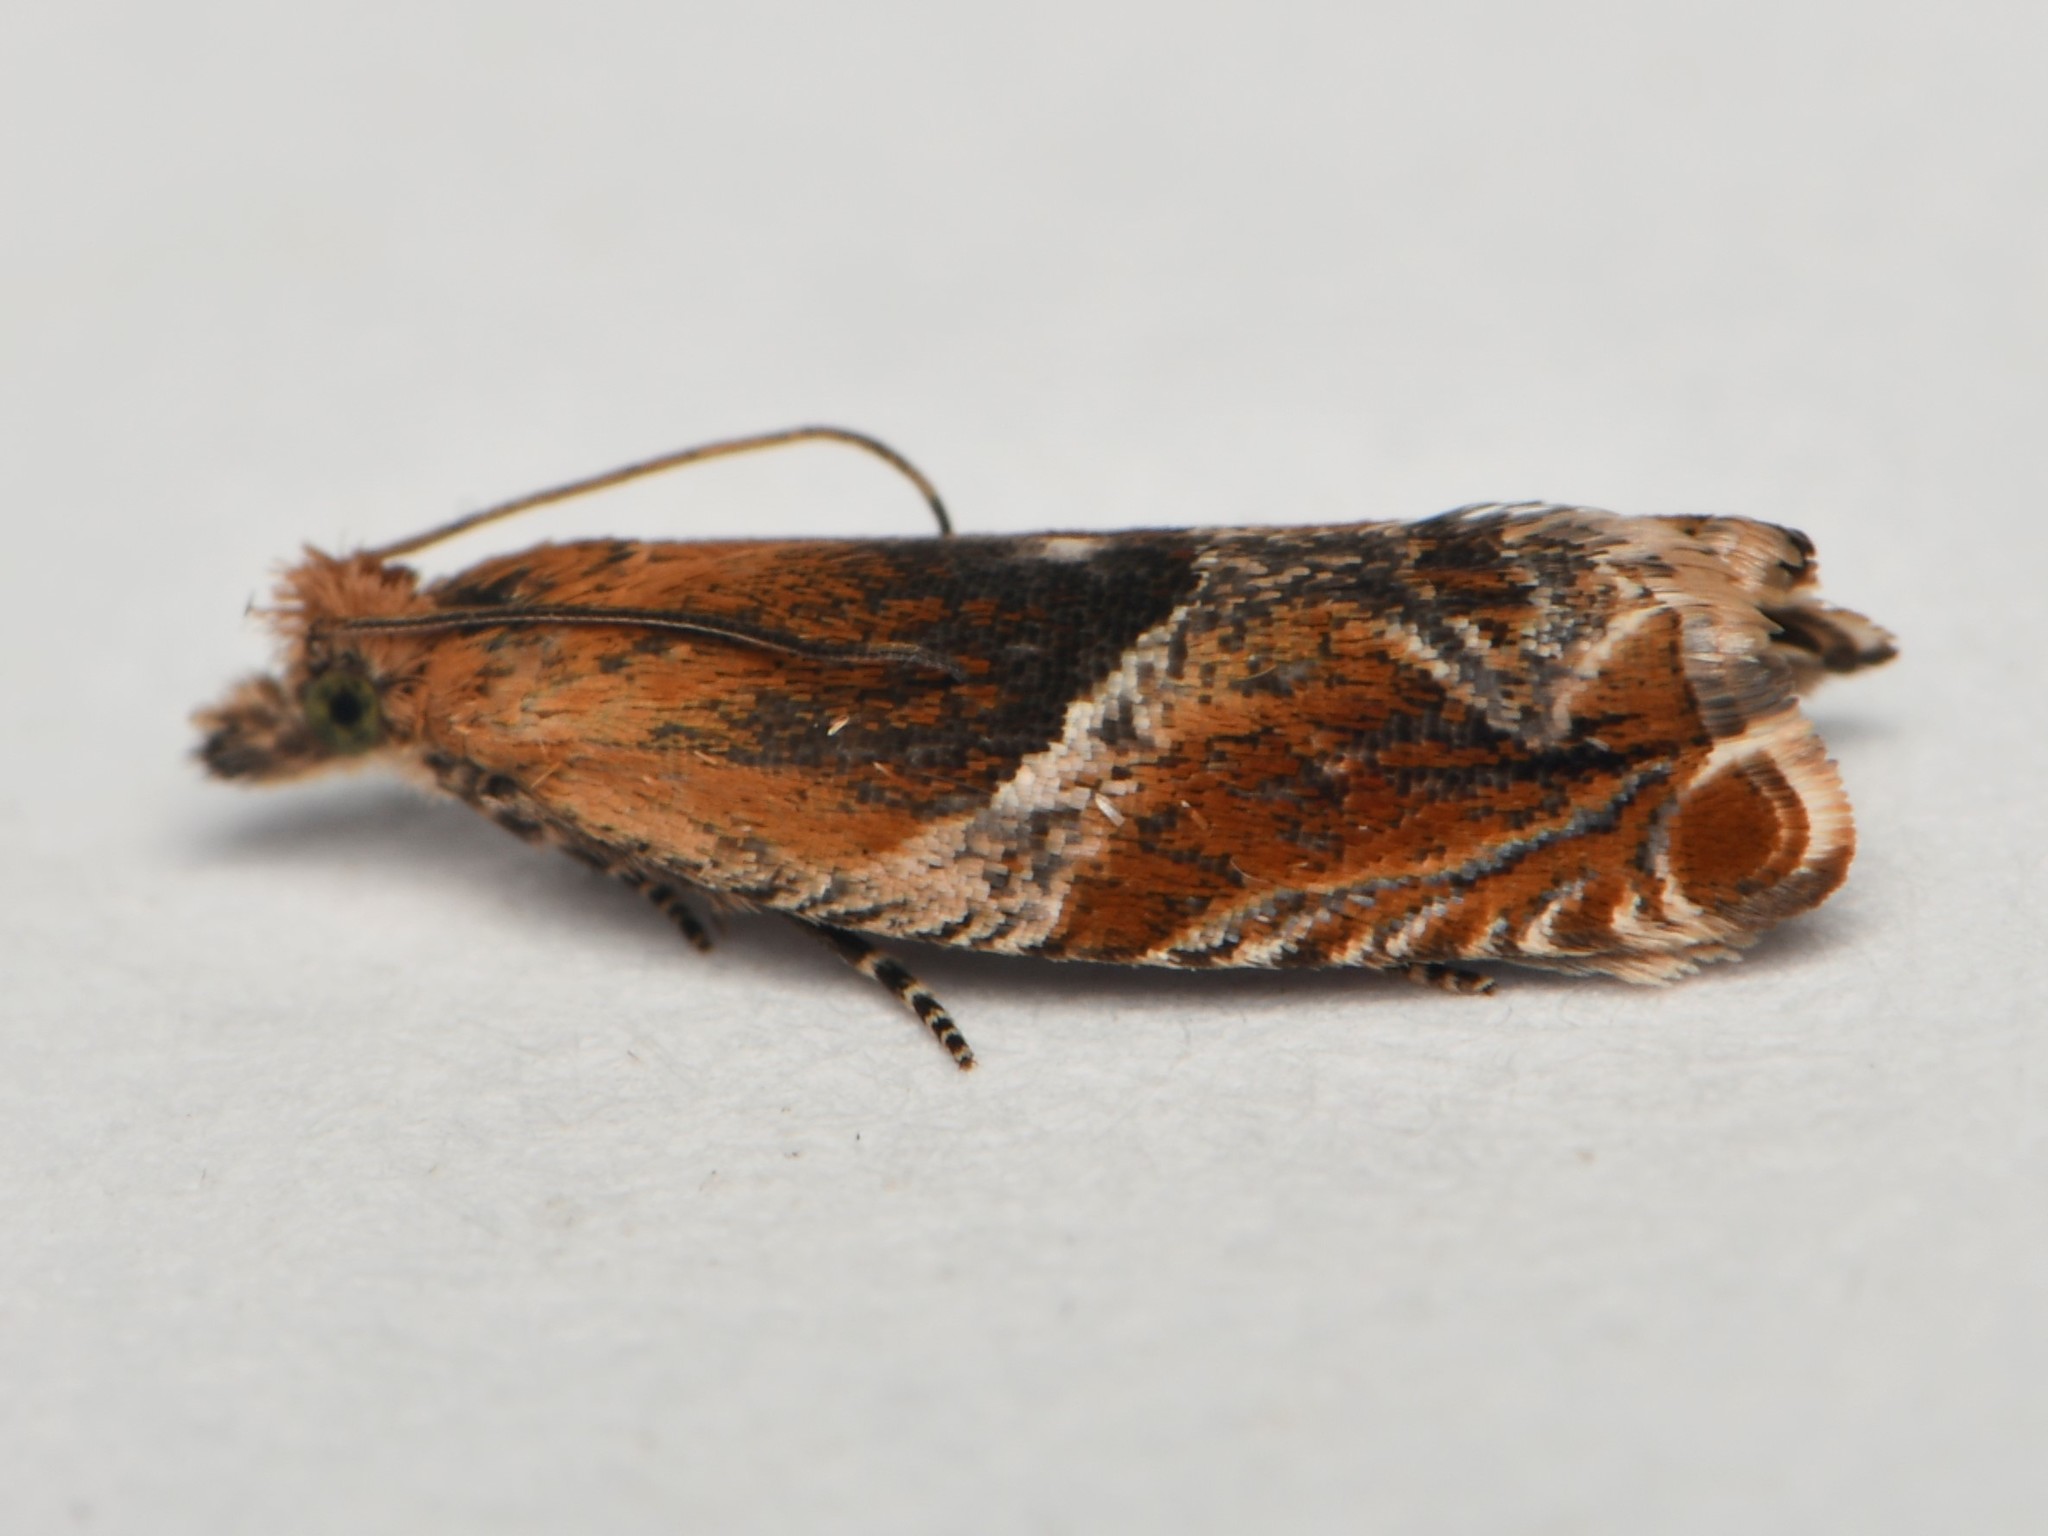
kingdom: Animalia
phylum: Arthropoda
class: Insecta
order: Lepidoptera
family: Tortricidae
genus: Ancylis
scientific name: Ancylis obtusana
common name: Small buckthorn roller
